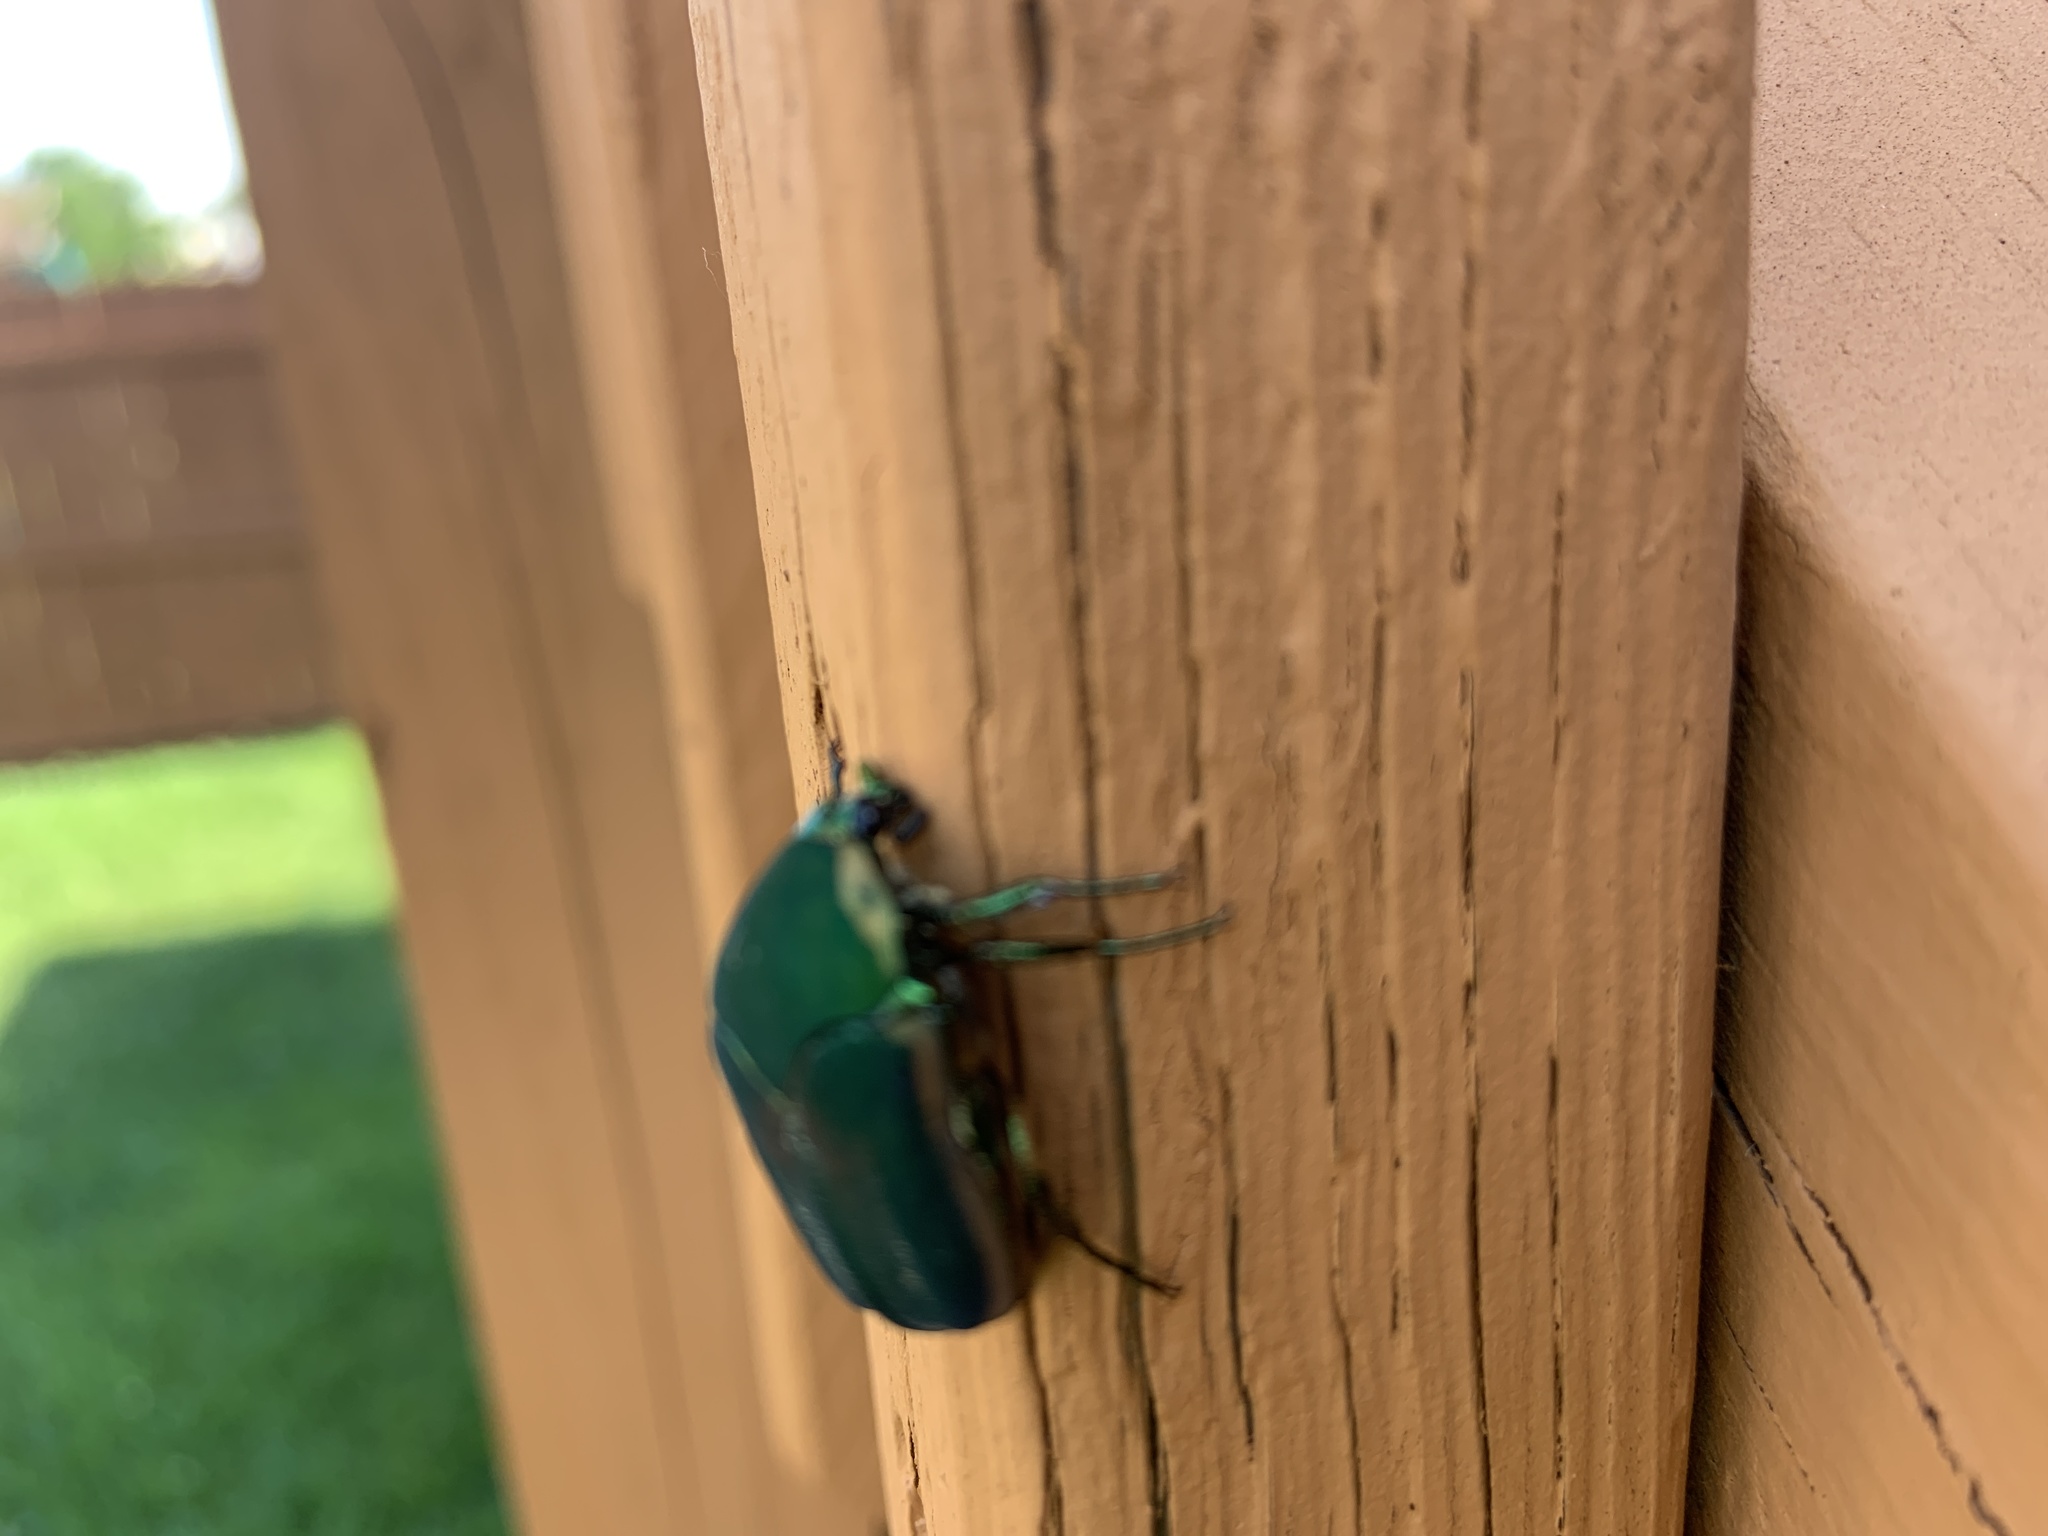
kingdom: Animalia
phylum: Arthropoda
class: Insecta
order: Coleoptera
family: Scarabaeidae
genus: Cotinis
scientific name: Cotinis nitida
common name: Common green june beetle
